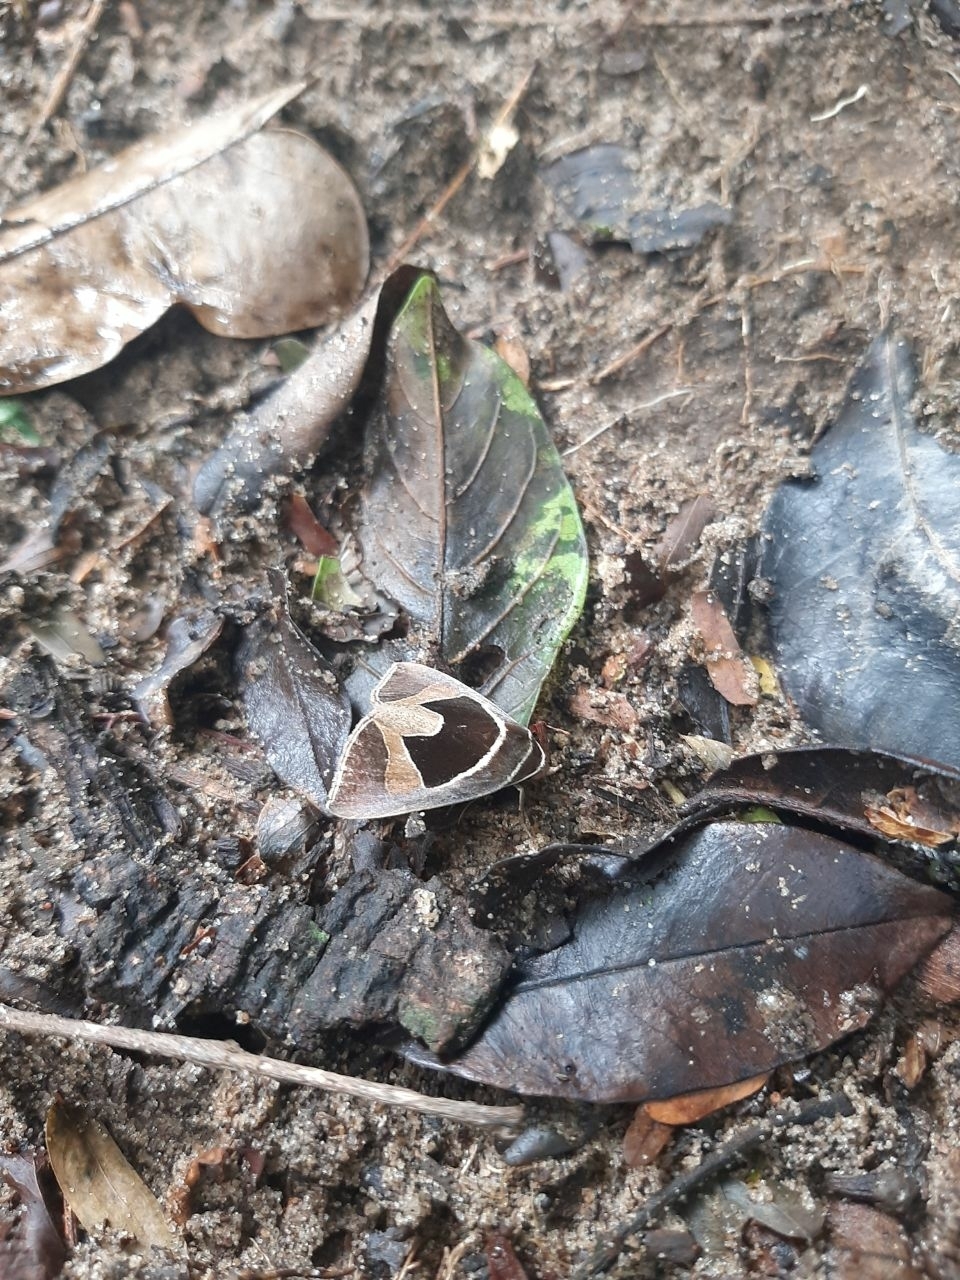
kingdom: Animalia
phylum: Arthropoda
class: Insecta
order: Lepidoptera
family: Erebidae
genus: Fodina
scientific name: Fodina embolophora
